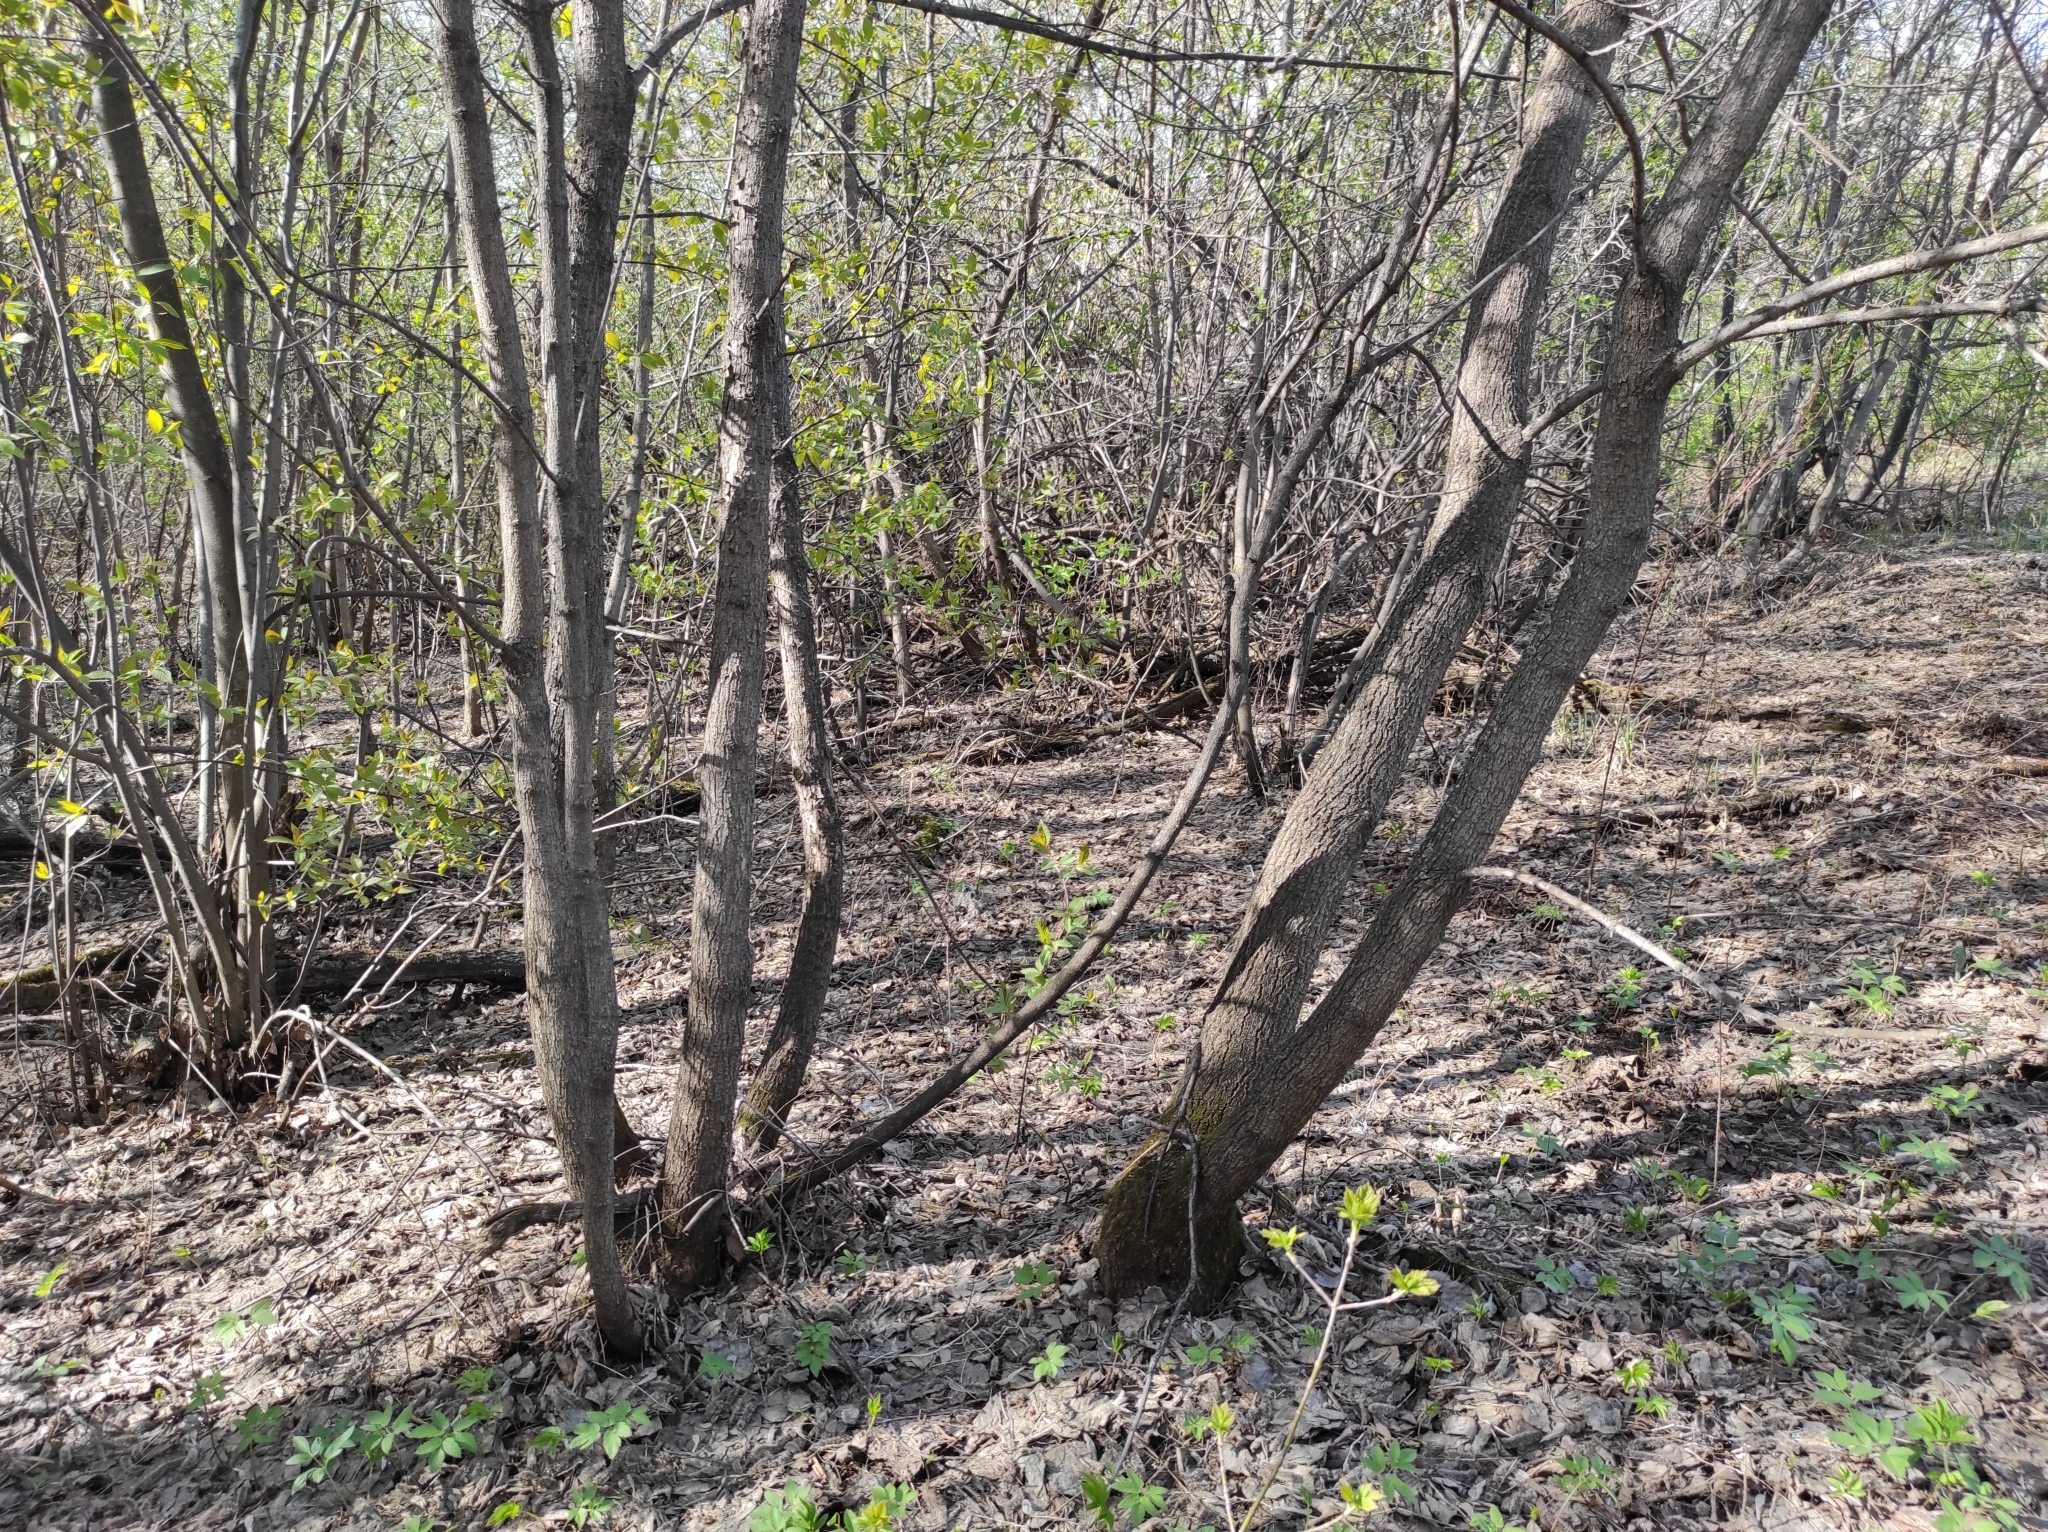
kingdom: Plantae
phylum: Tracheophyta
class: Magnoliopsida
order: Sapindales
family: Sapindaceae
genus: Acer
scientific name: Acer negundo
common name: Ashleaf maple
